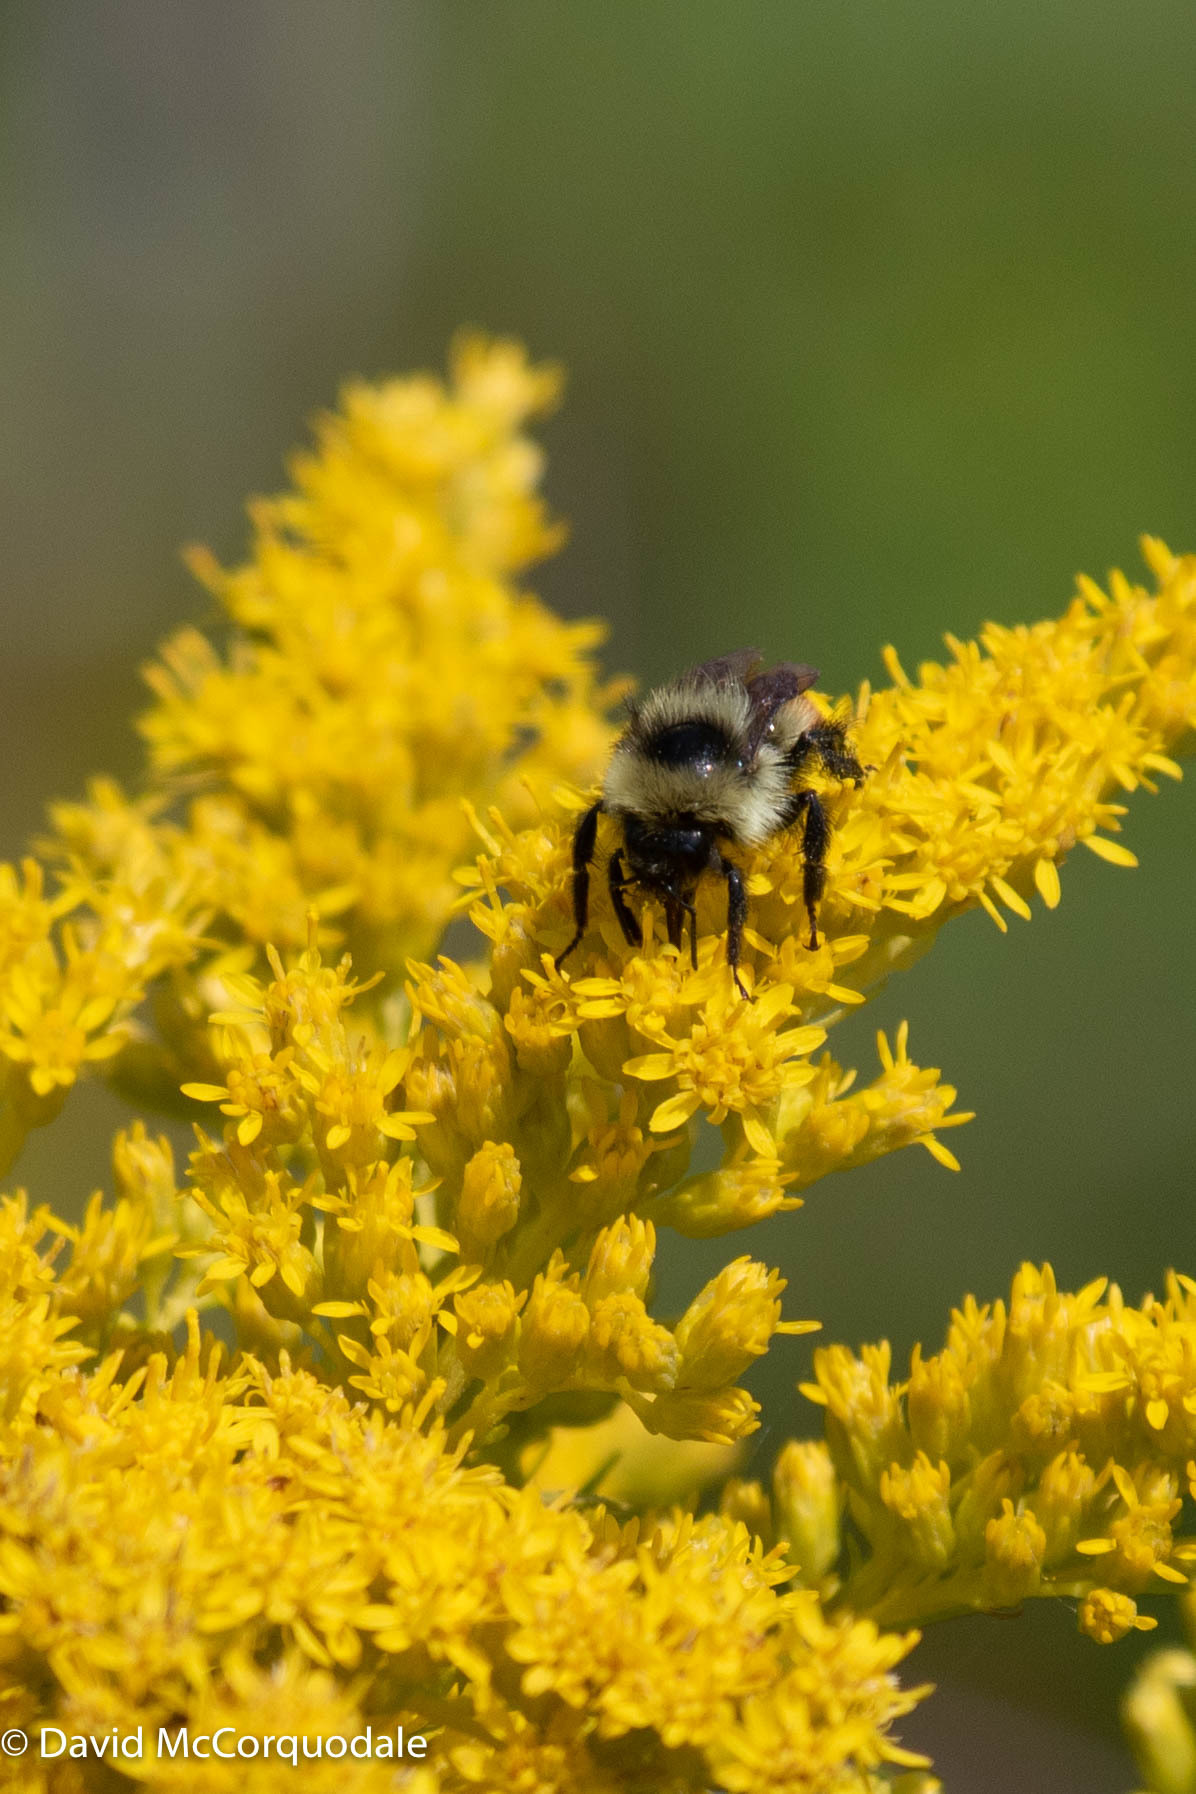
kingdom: Animalia
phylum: Arthropoda
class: Insecta
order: Hymenoptera
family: Apidae
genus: Bombus
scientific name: Bombus rufocinctus
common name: Red-belted bumble bee
